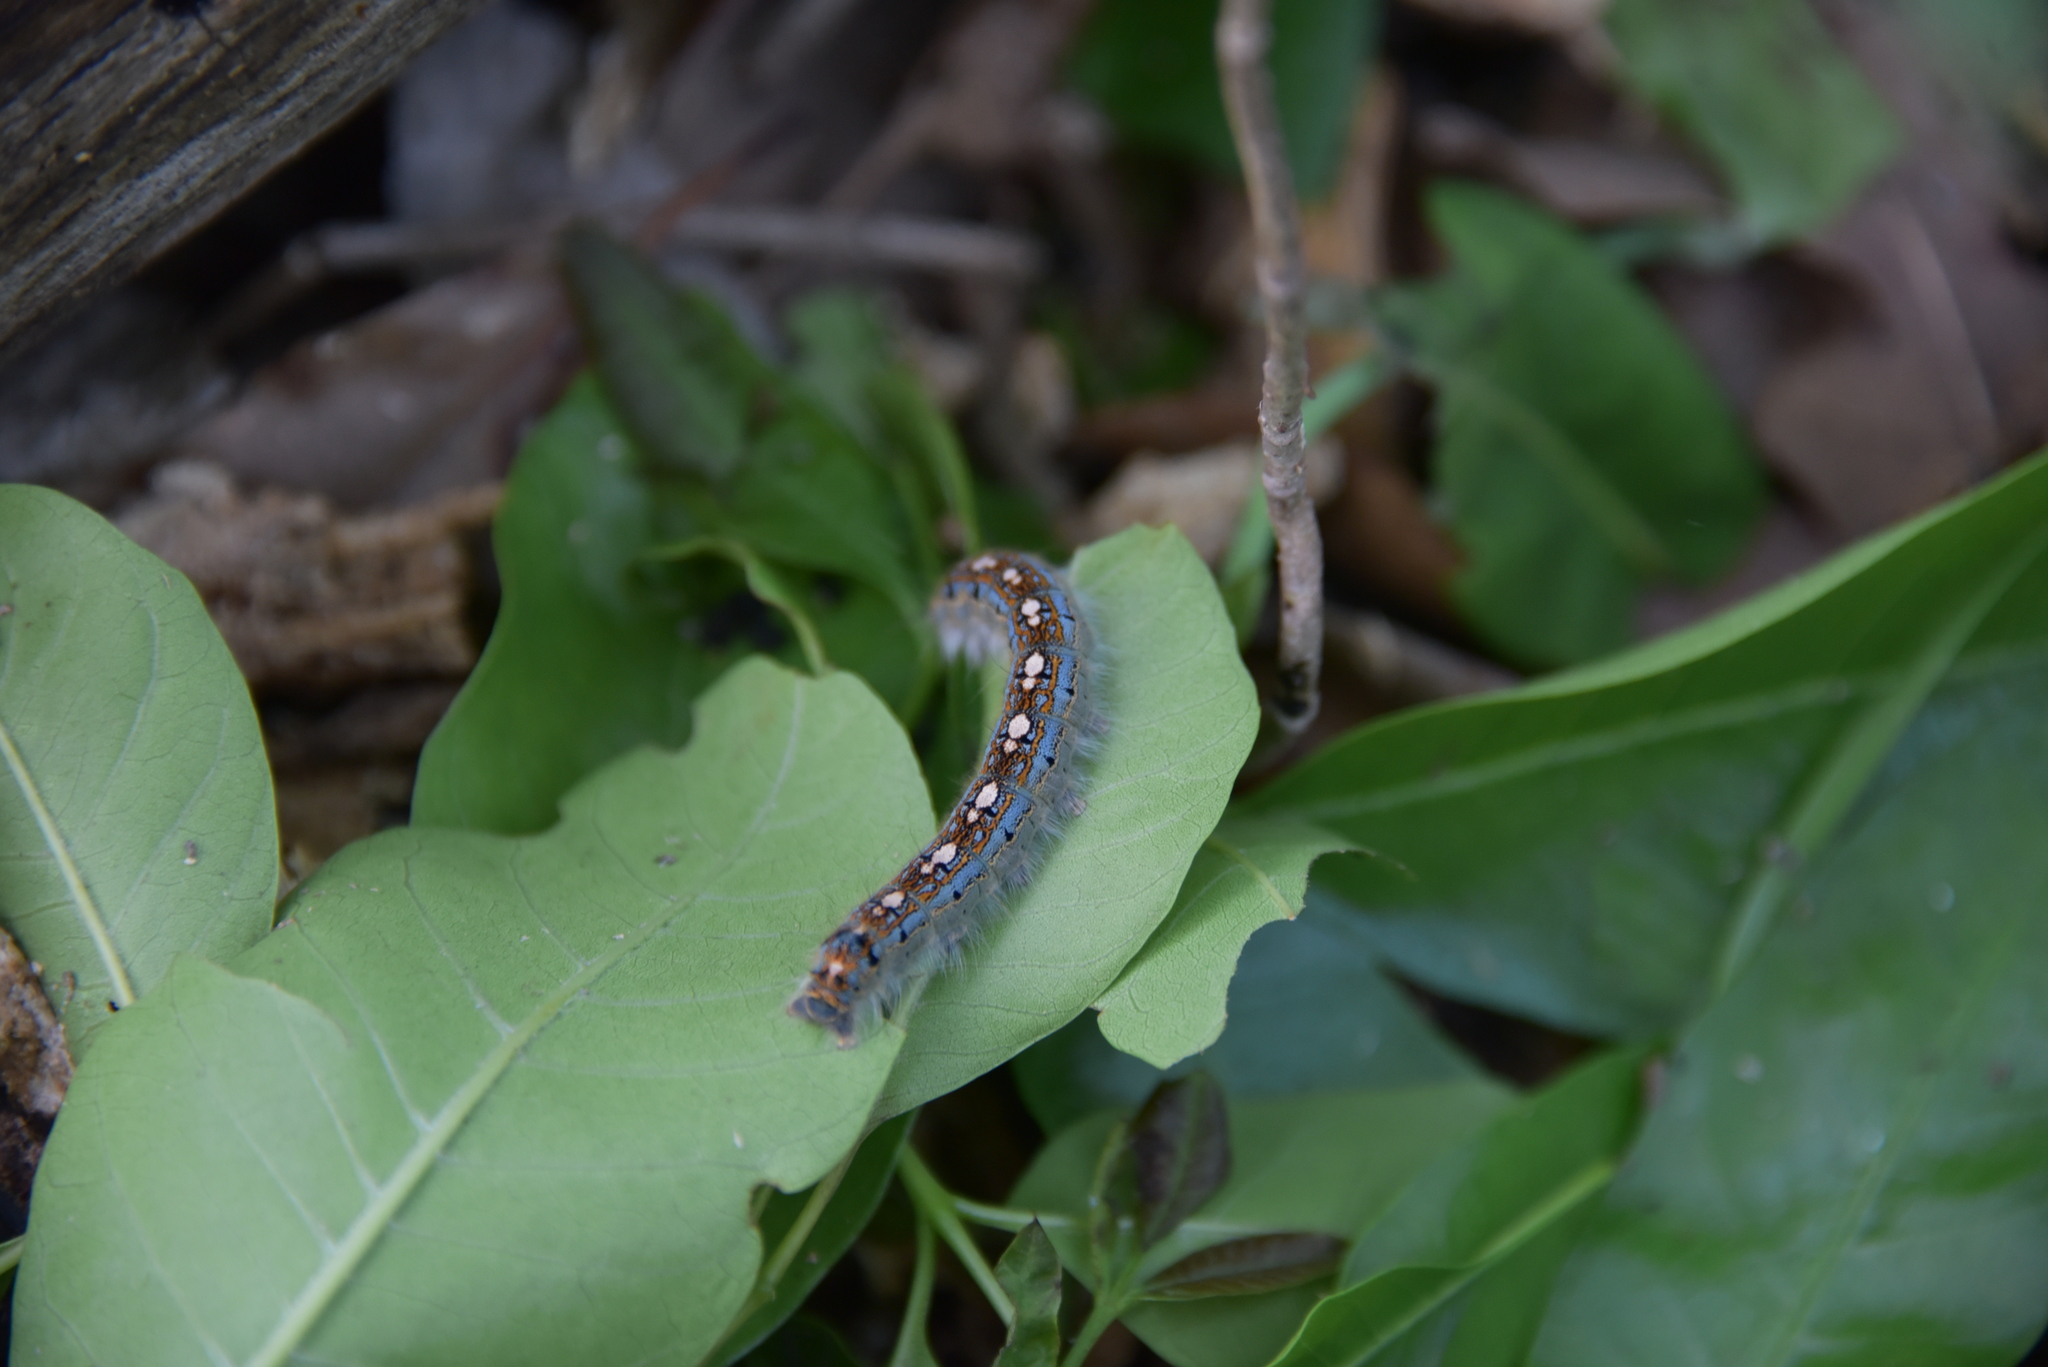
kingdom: Animalia
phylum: Arthropoda
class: Insecta
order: Lepidoptera
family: Lasiocampidae
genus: Malacosoma
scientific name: Malacosoma disstria
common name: Forest tent caterpillar
